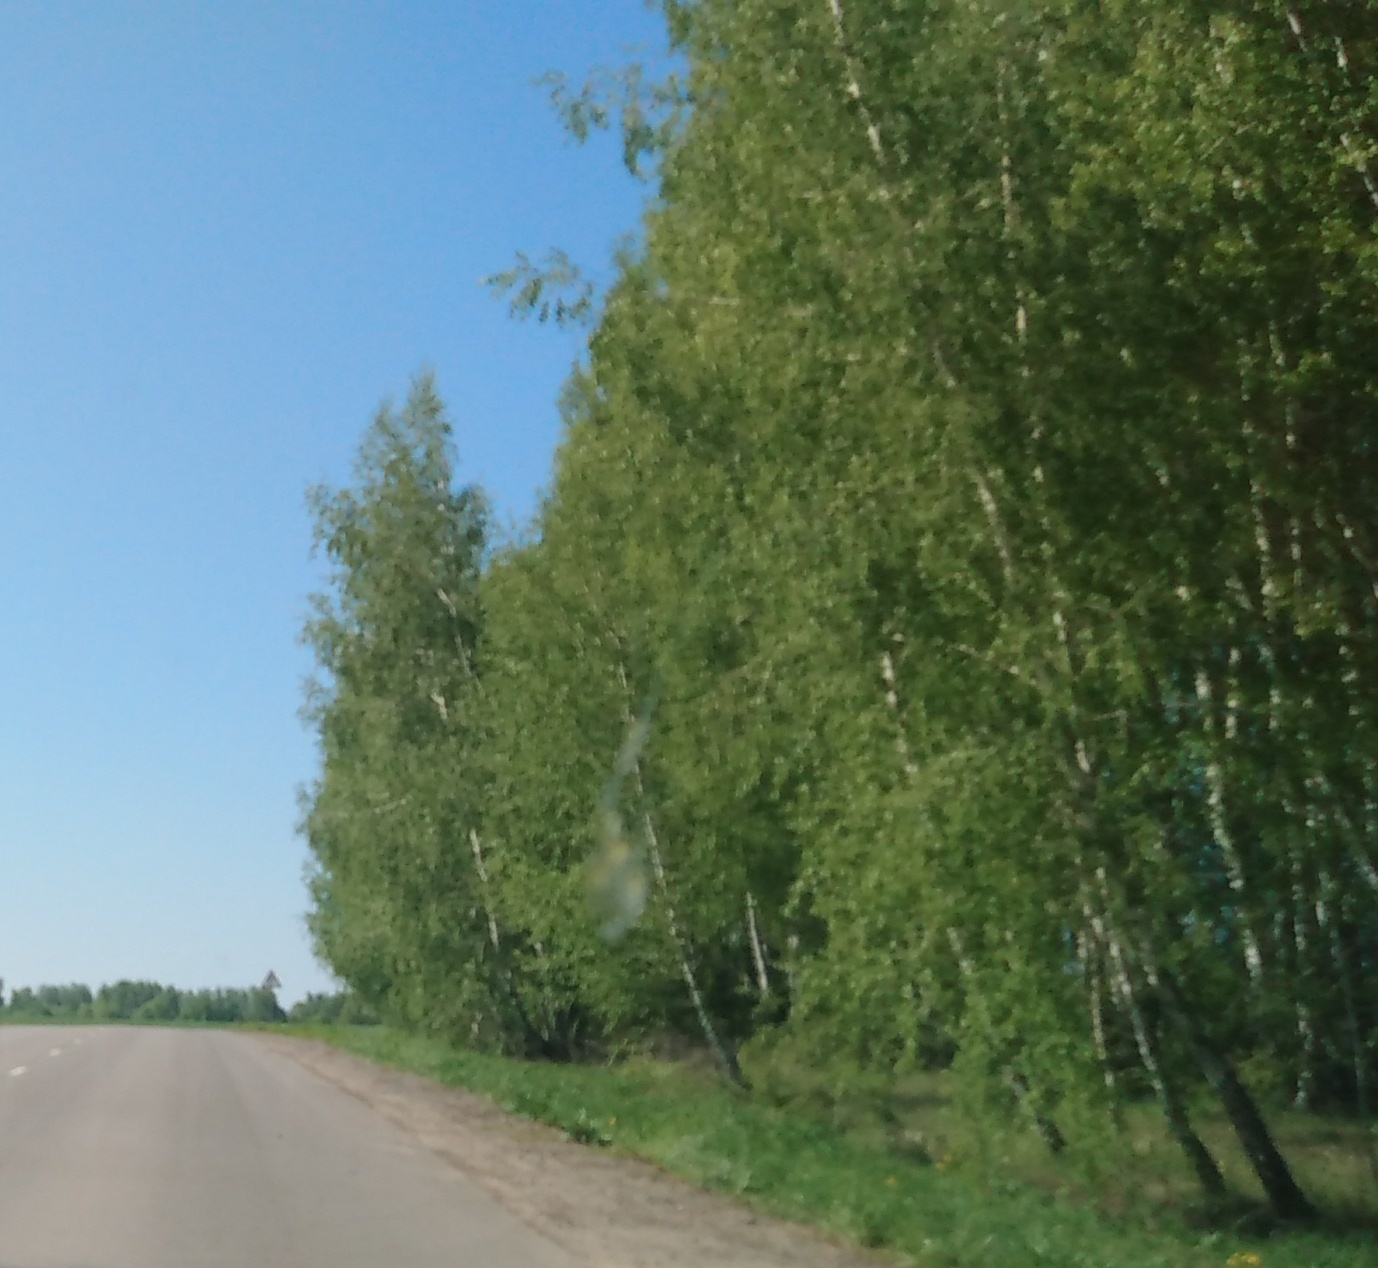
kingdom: Plantae
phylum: Tracheophyta
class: Magnoliopsida
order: Fagales
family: Betulaceae
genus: Betula
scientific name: Betula pendula
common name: Silver birch
